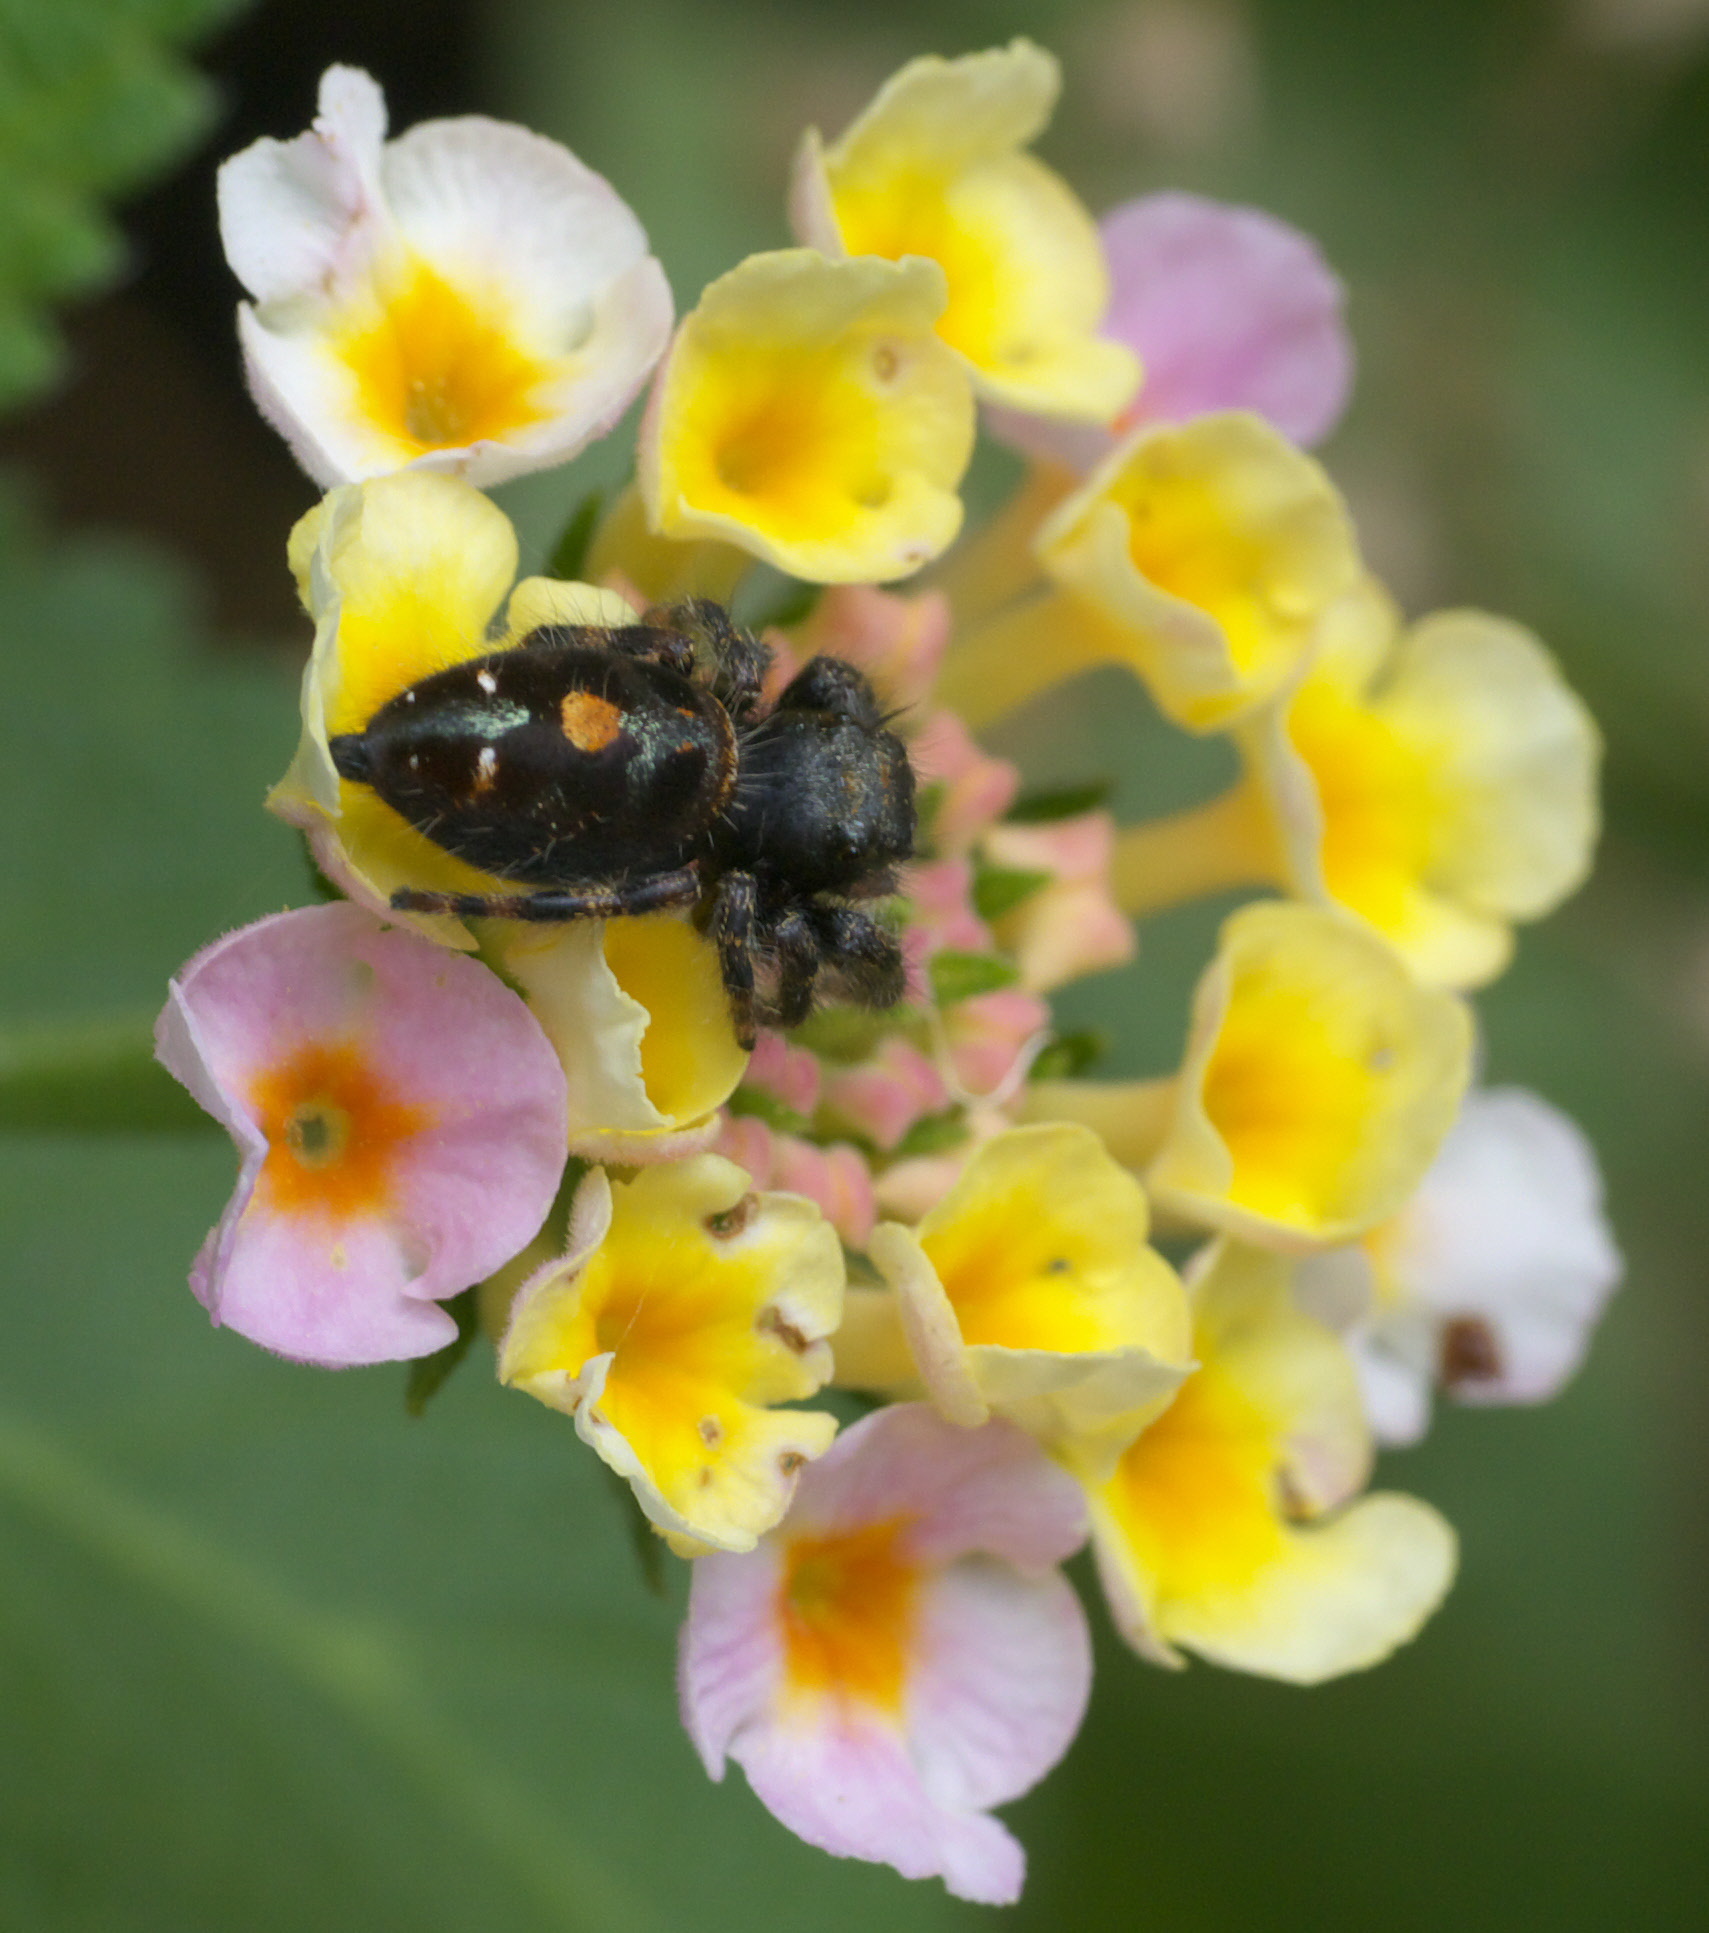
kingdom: Animalia
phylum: Arthropoda
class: Arachnida
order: Araneae
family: Salticidae
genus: Phidippus
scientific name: Phidippus audax
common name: Bold jumper
